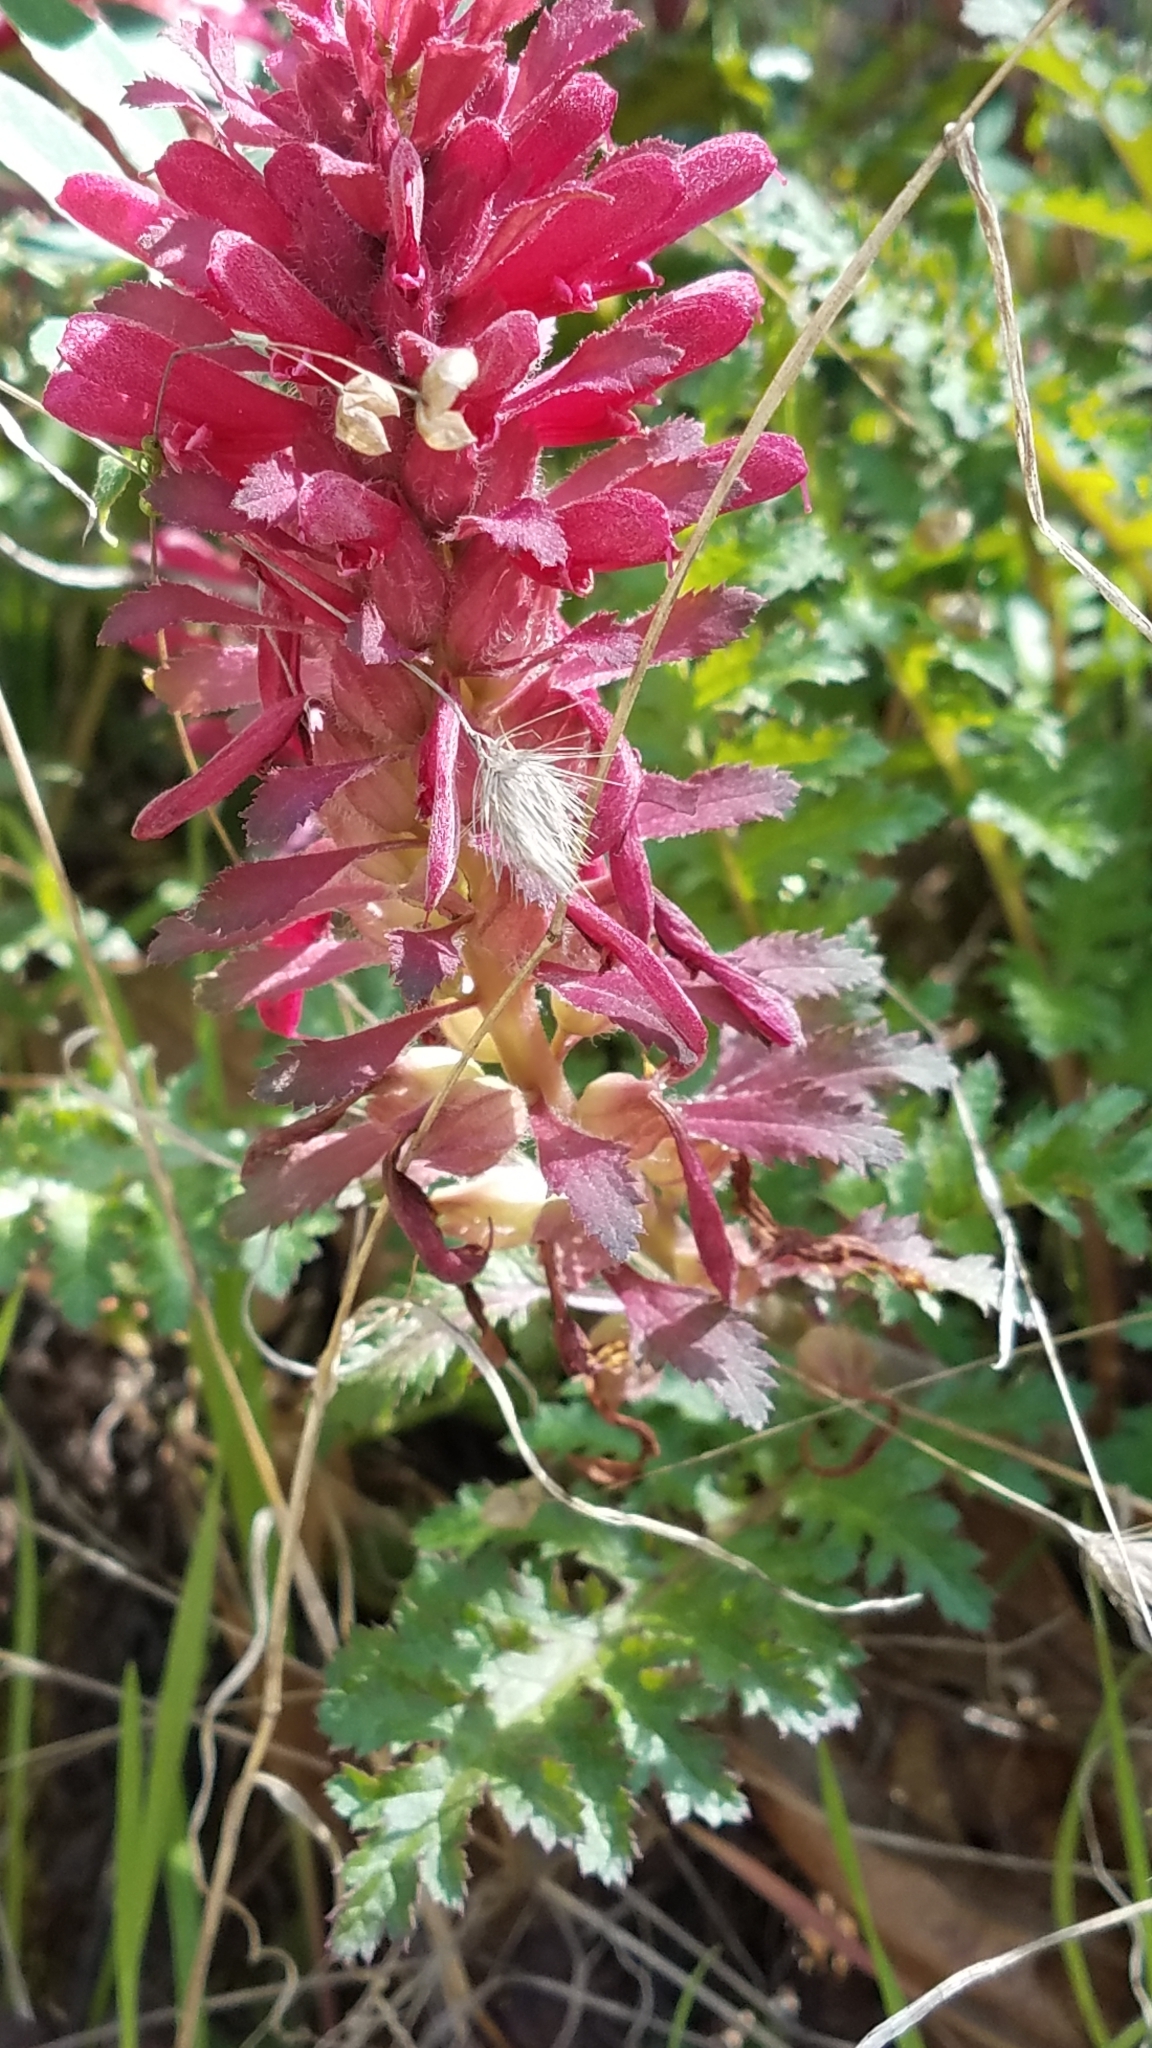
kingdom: Plantae
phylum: Tracheophyta
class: Magnoliopsida
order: Lamiales
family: Orobanchaceae
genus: Pedicularis
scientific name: Pedicularis densiflora
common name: Indian warrior
